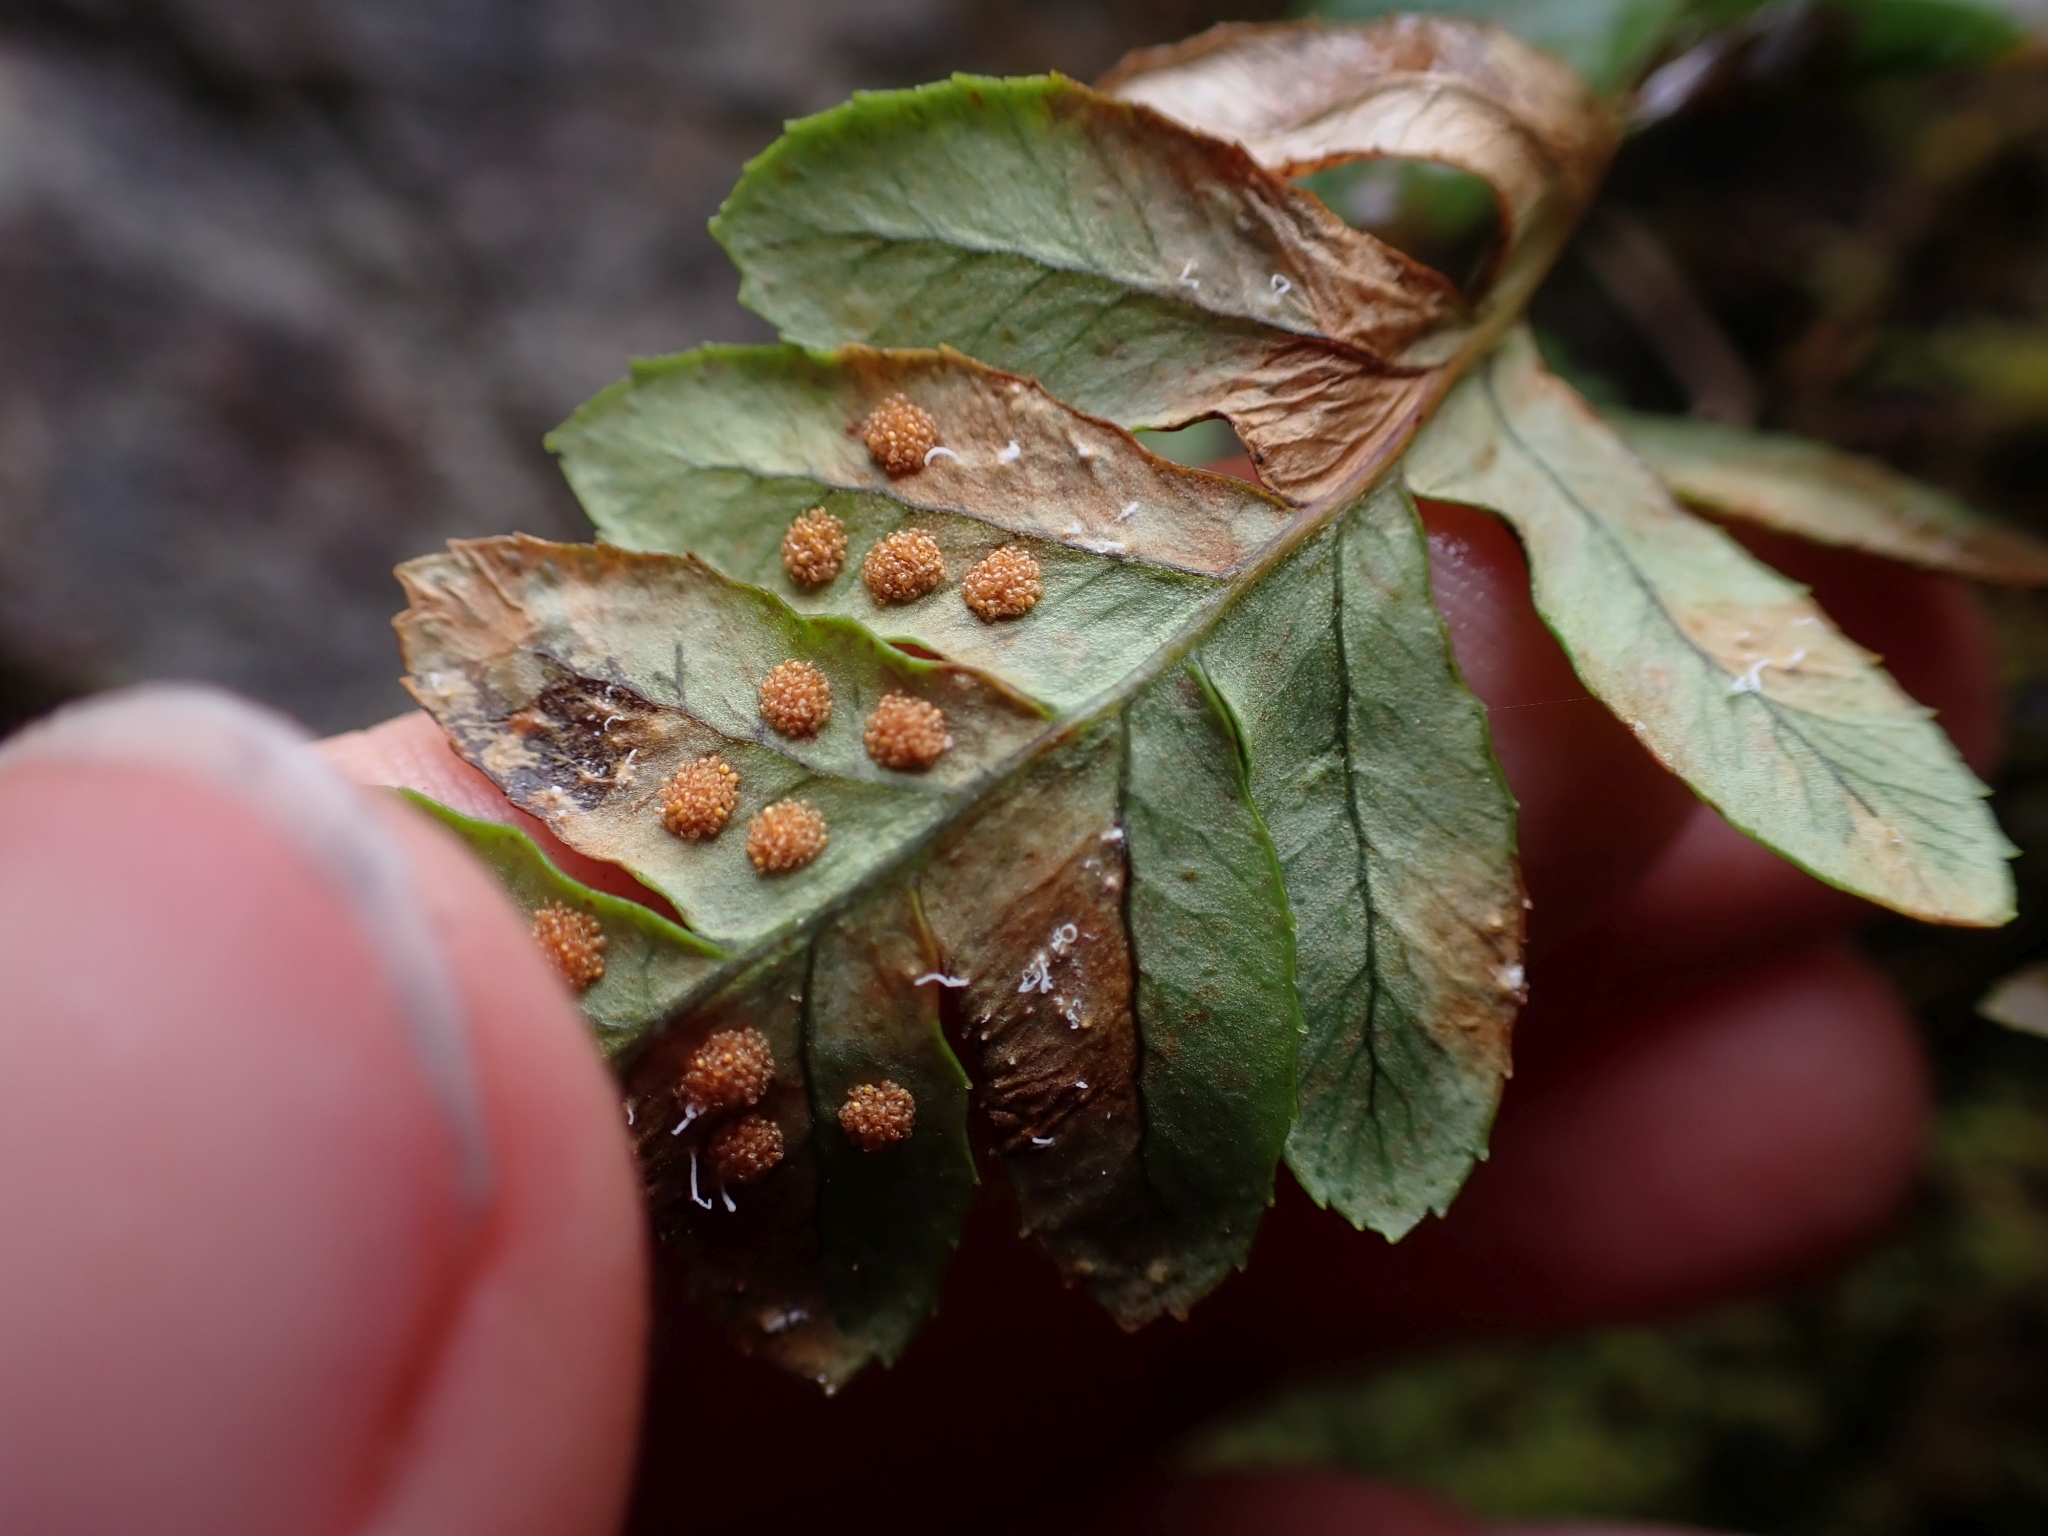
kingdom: Plantae
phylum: Tracheophyta
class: Polypodiopsida
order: Polypodiales
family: Polypodiaceae
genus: Polypodium
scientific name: Polypodium glycyrrhiza
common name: Licorice fern
